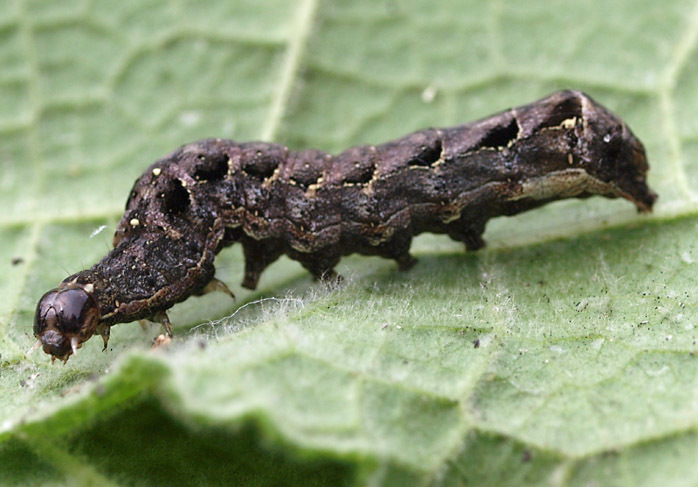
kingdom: Animalia
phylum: Arthropoda
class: Insecta
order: Lepidoptera
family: Noctuidae
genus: Axylia
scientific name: Axylia putris
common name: Flame
